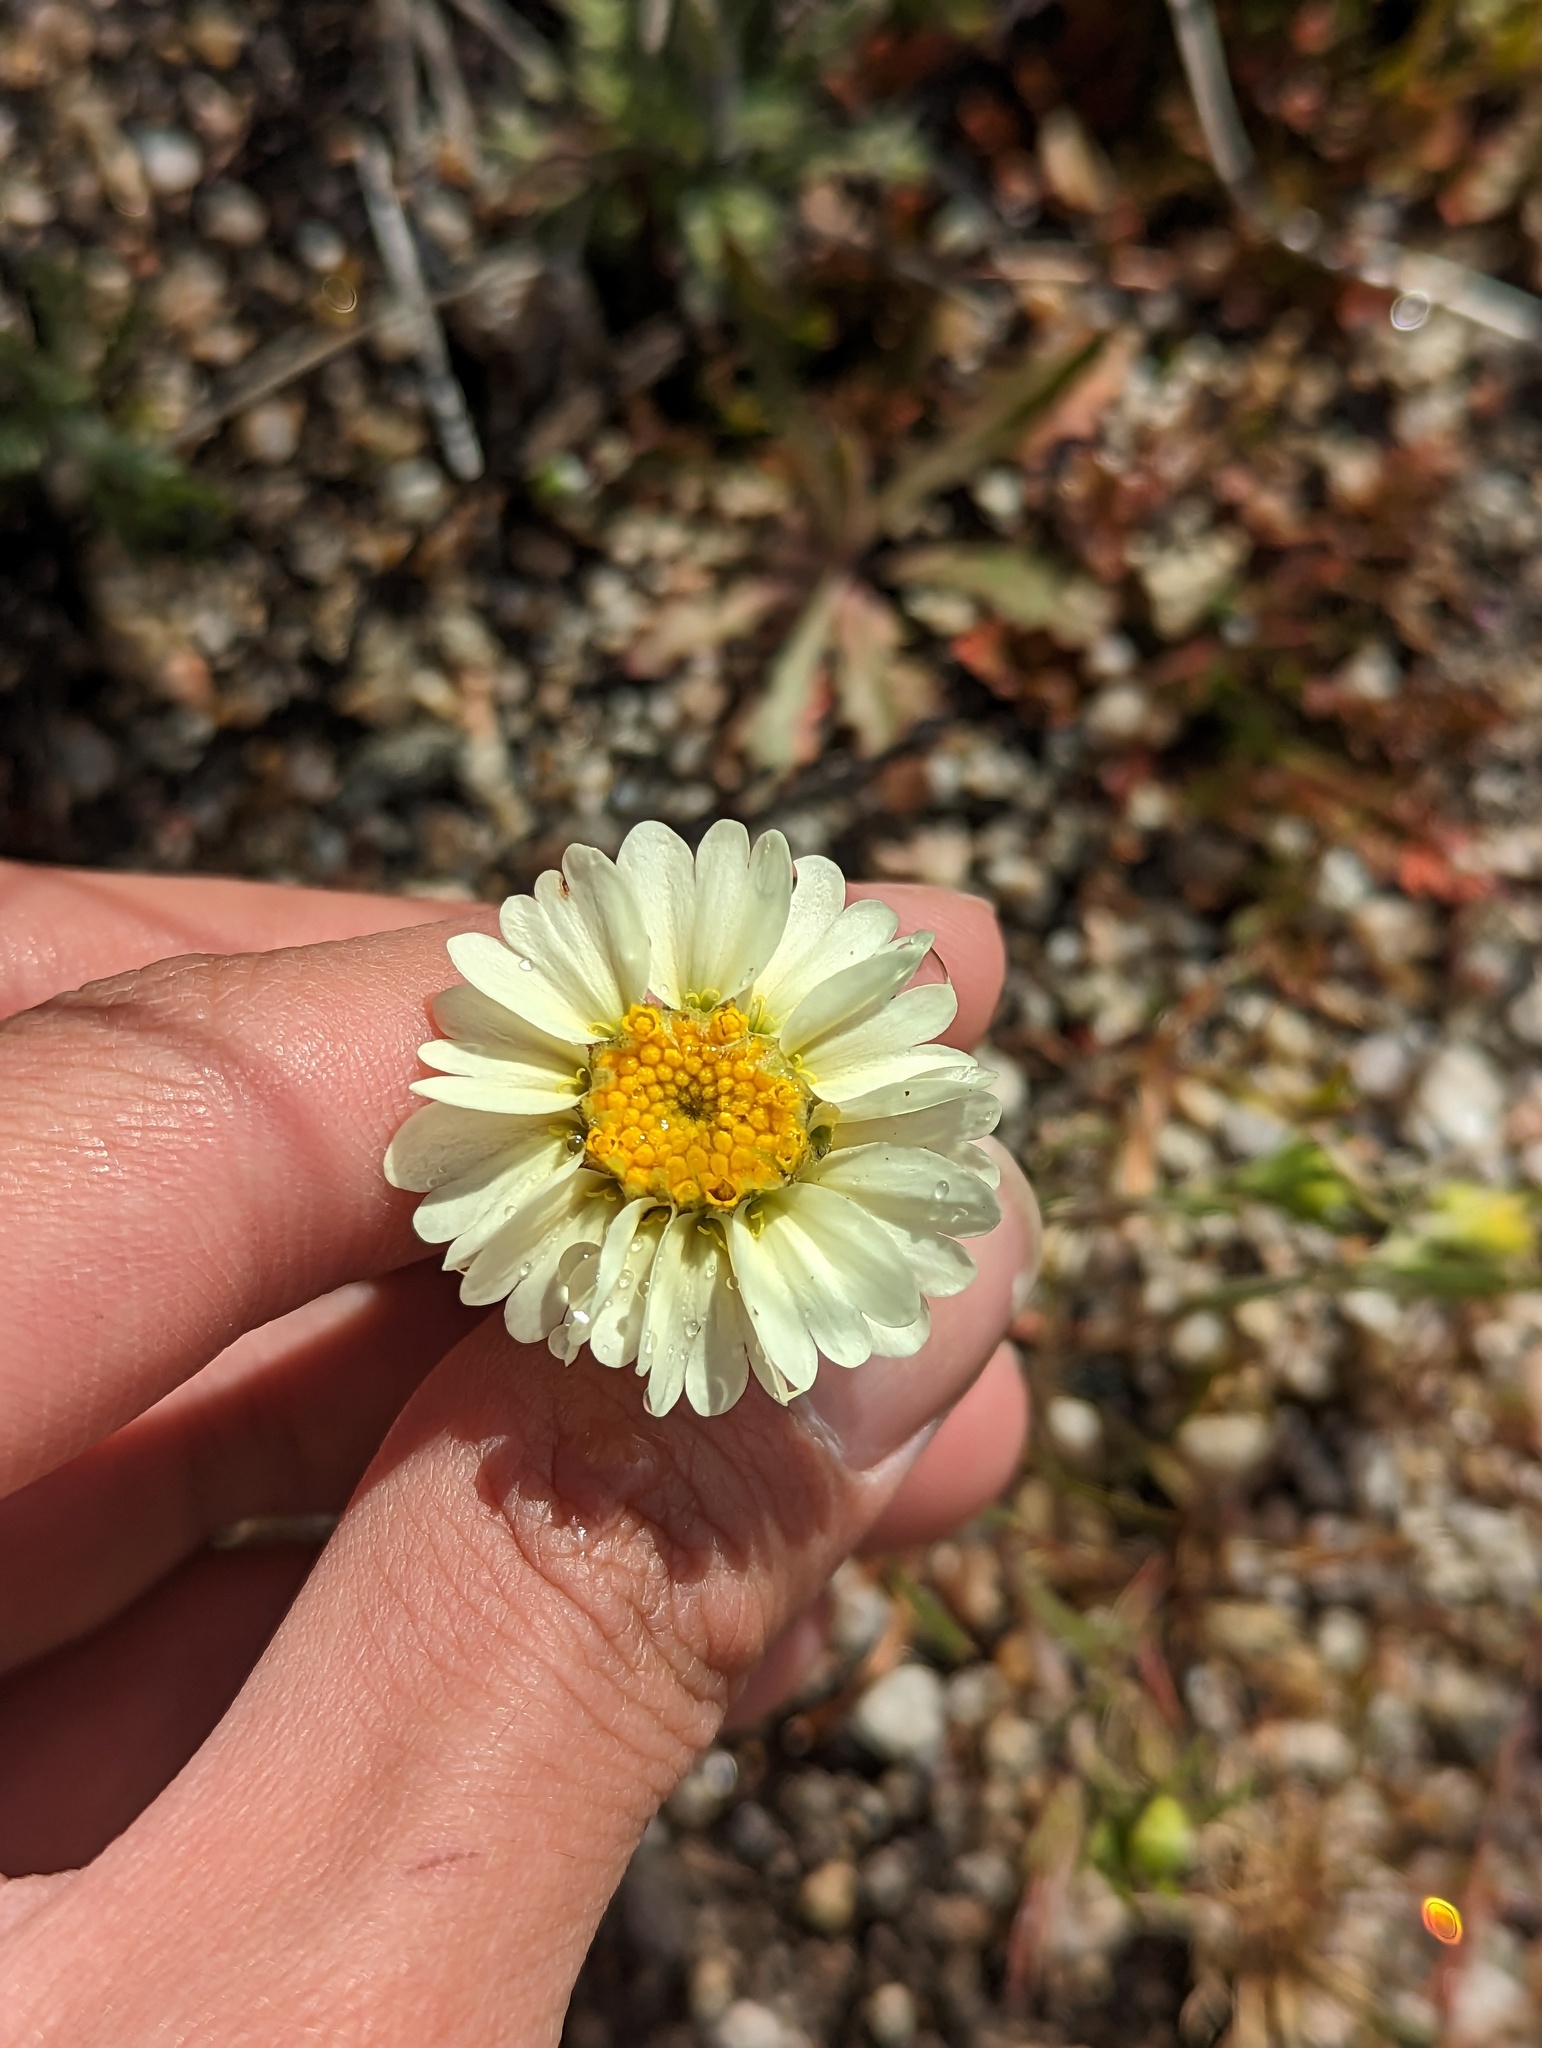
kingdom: Plantae
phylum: Tracheophyta
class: Magnoliopsida
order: Asterales
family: Asteraceae
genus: Layia
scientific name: Layia glandulosa
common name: White layia
